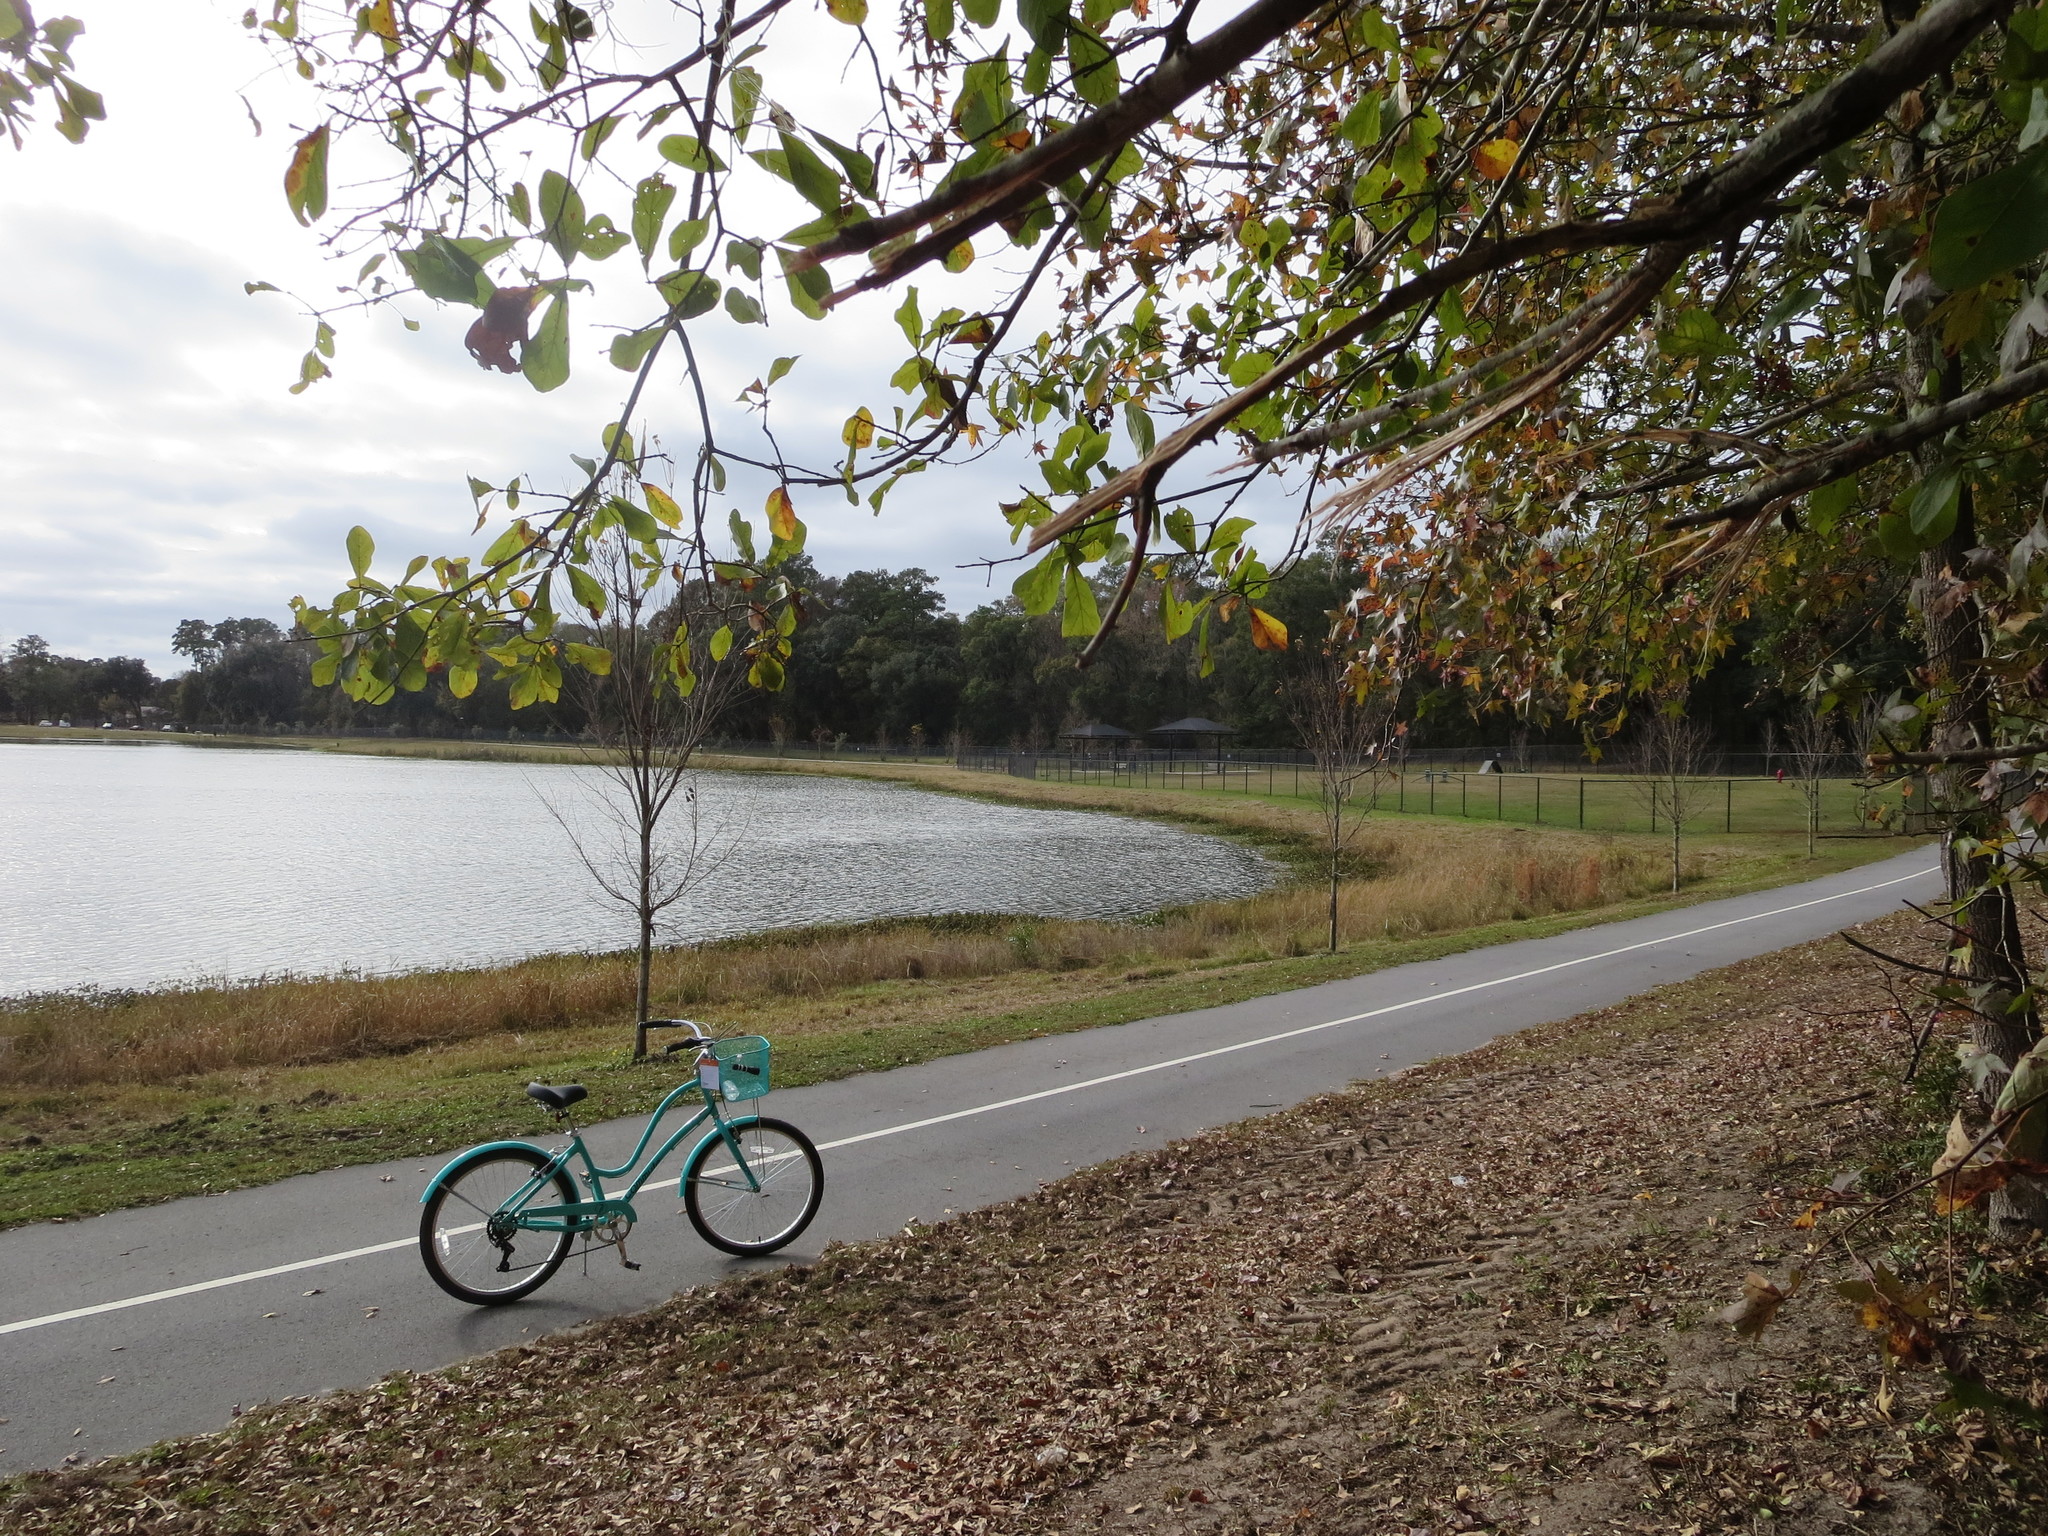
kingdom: Plantae
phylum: Tracheophyta
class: Magnoliopsida
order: Fagales
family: Fagaceae
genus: Quercus
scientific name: Quercus nigra
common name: Water oak
